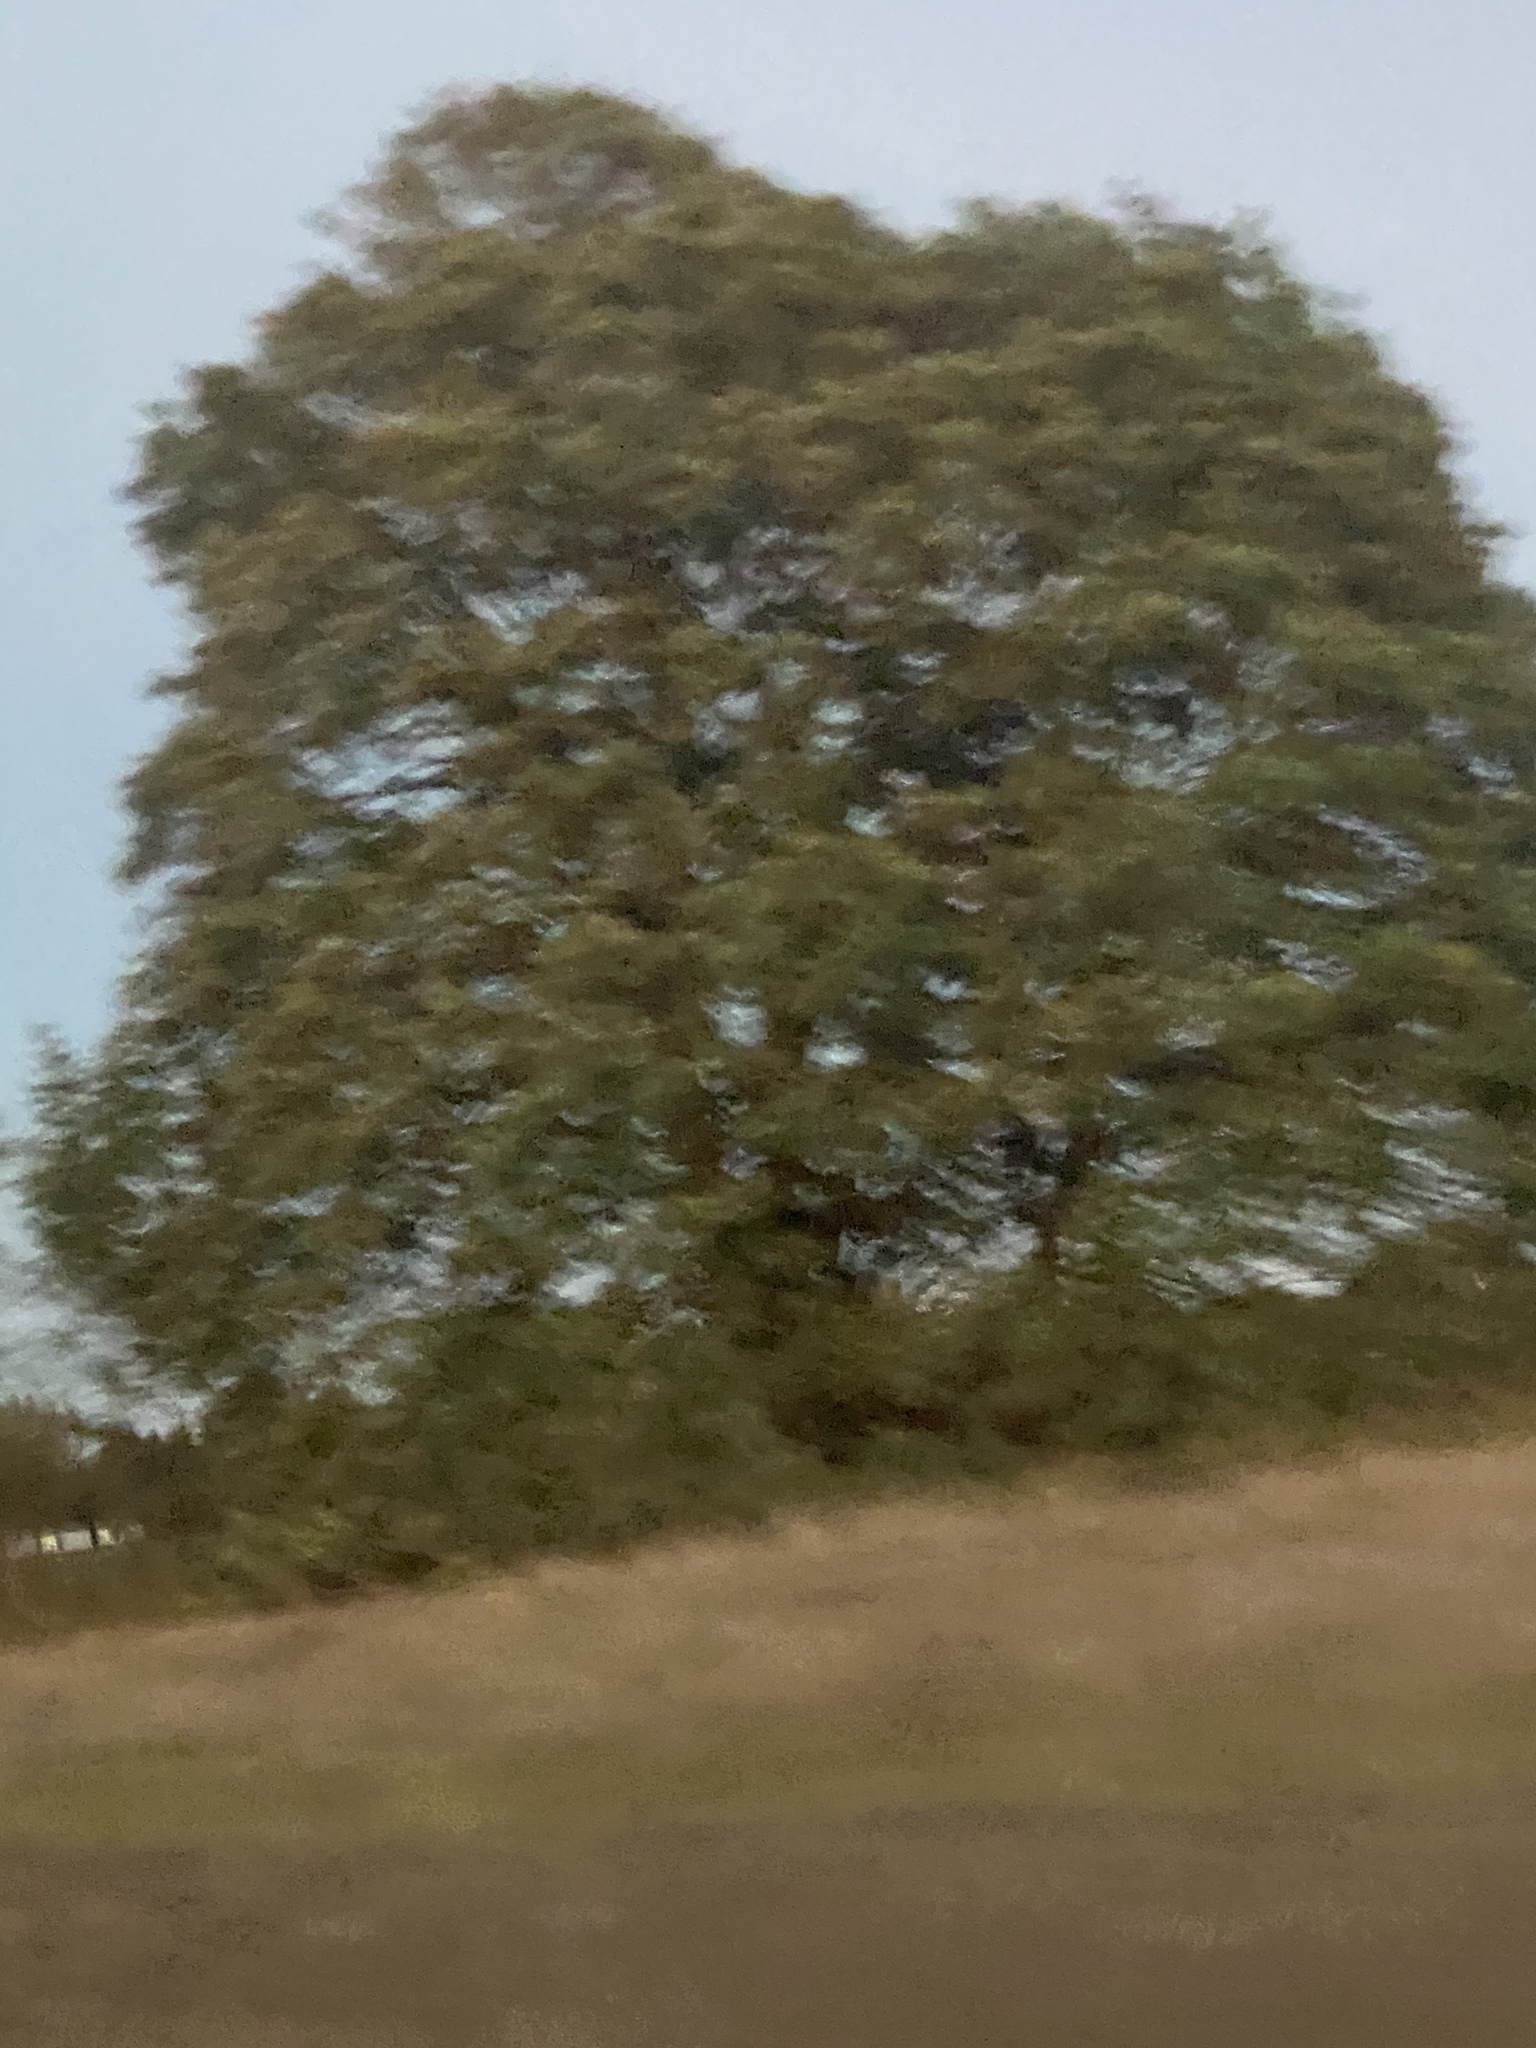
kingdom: Plantae
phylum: Tracheophyta
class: Magnoliopsida
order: Fagales
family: Fagaceae
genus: Quercus
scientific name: Quercus garryana
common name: Garry oak
